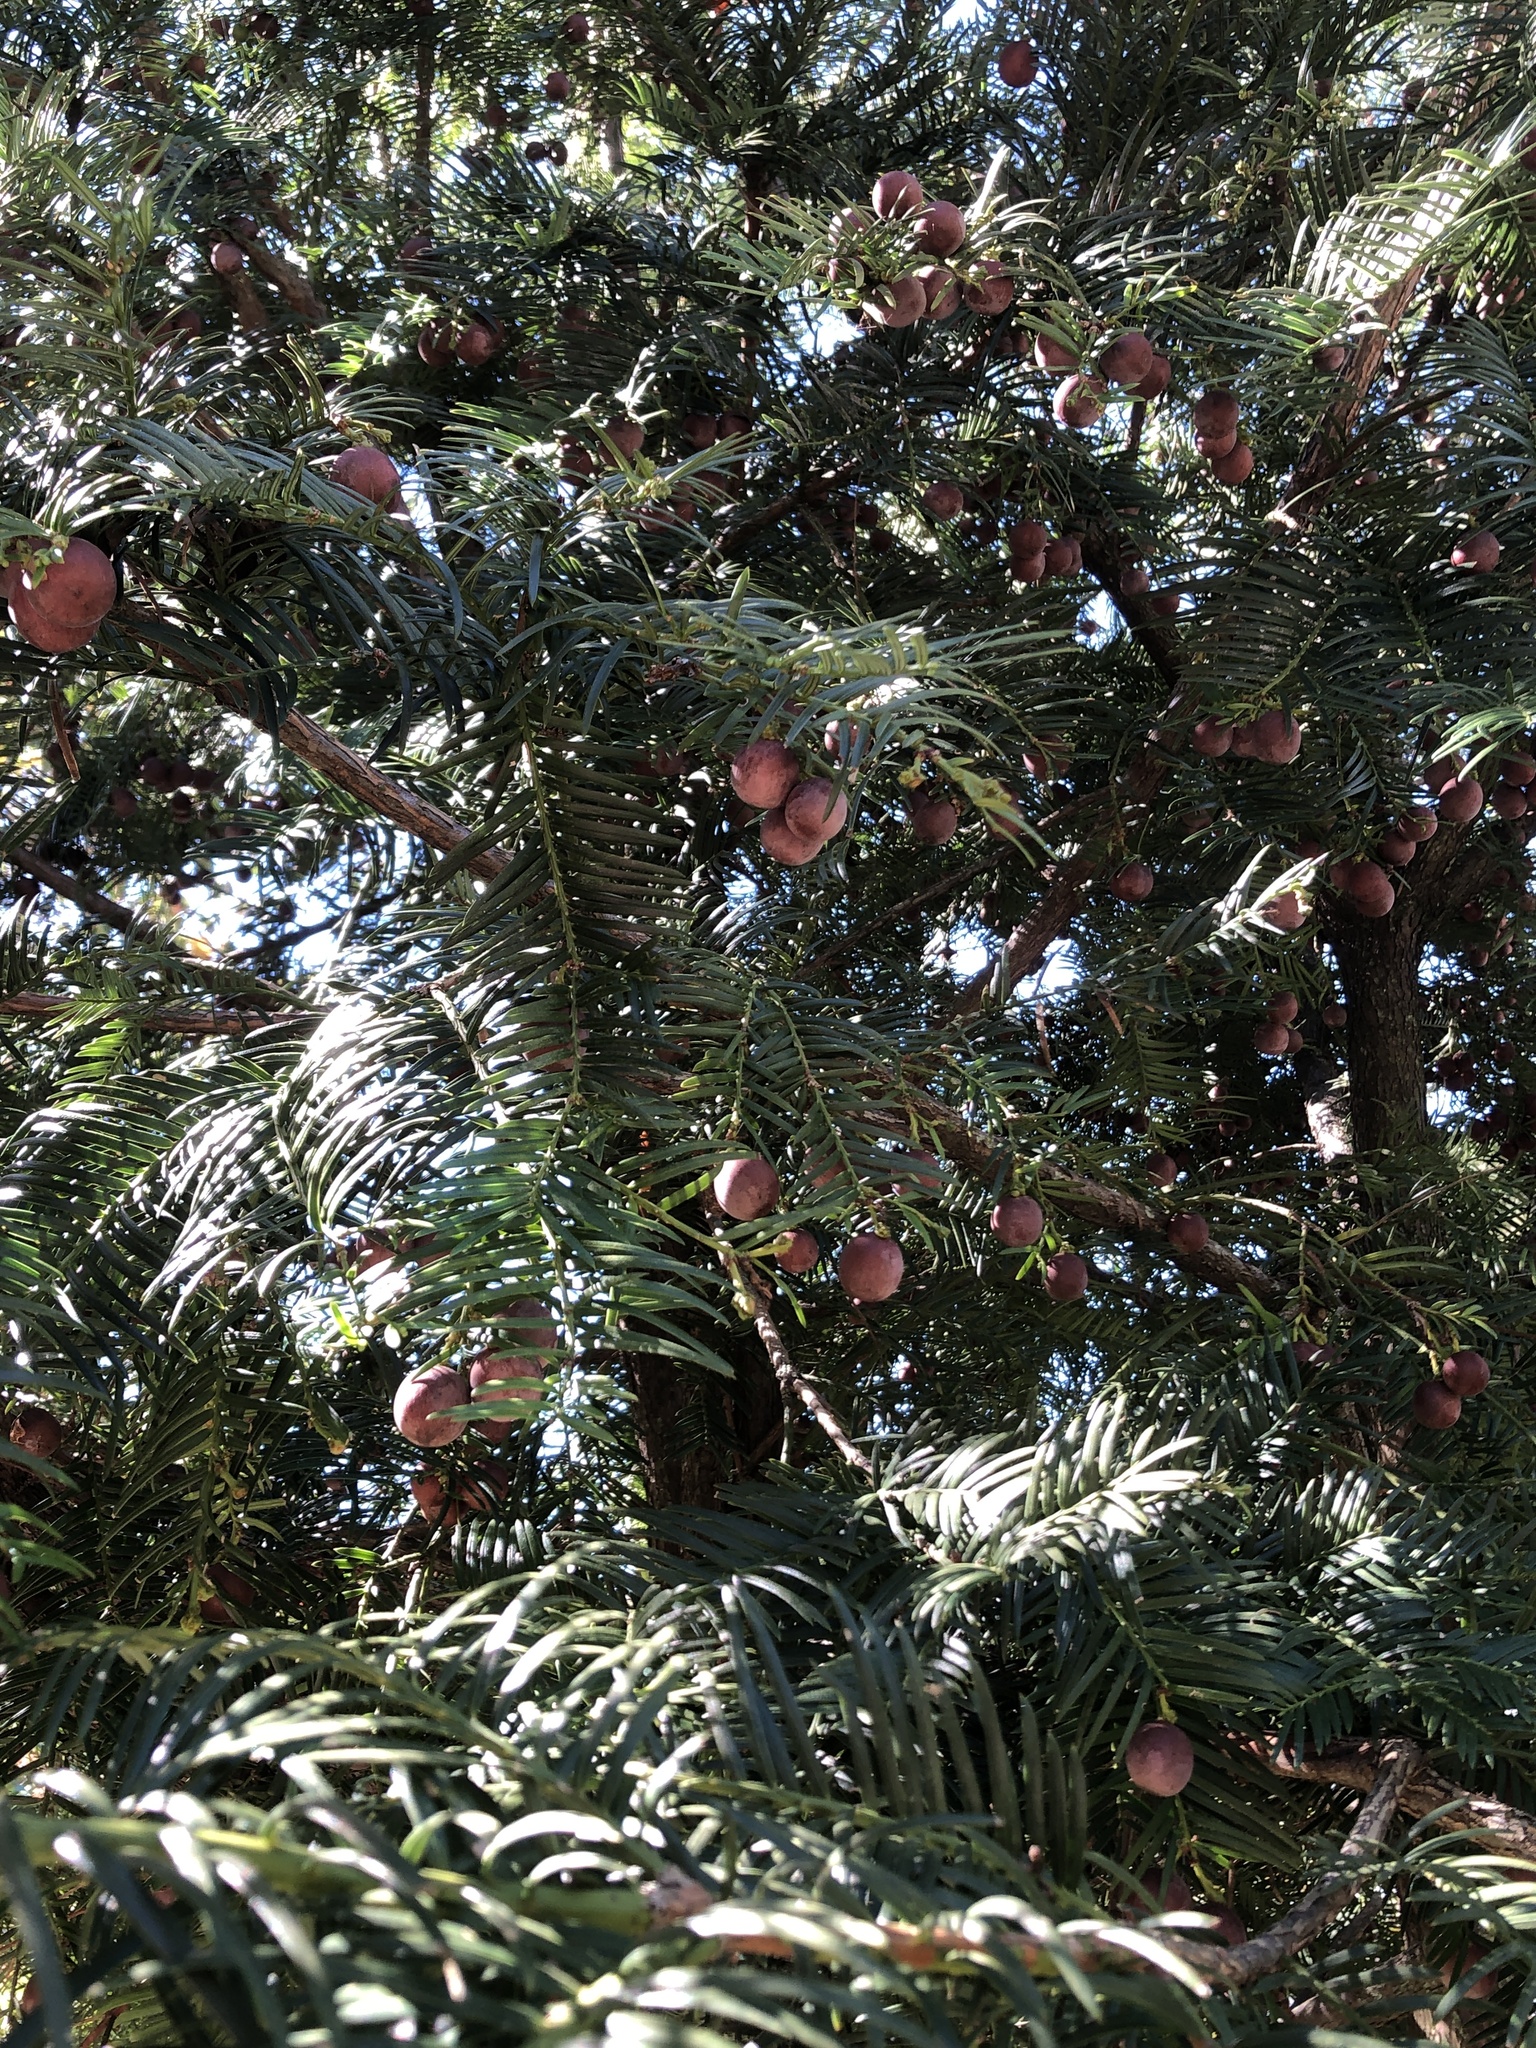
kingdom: Plantae
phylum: Tracheophyta
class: Pinopsida
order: Pinales
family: Cephalotaxaceae
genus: Cephalotaxus
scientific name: Cephalotaxus harringtonii
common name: Harrington's plum yew
